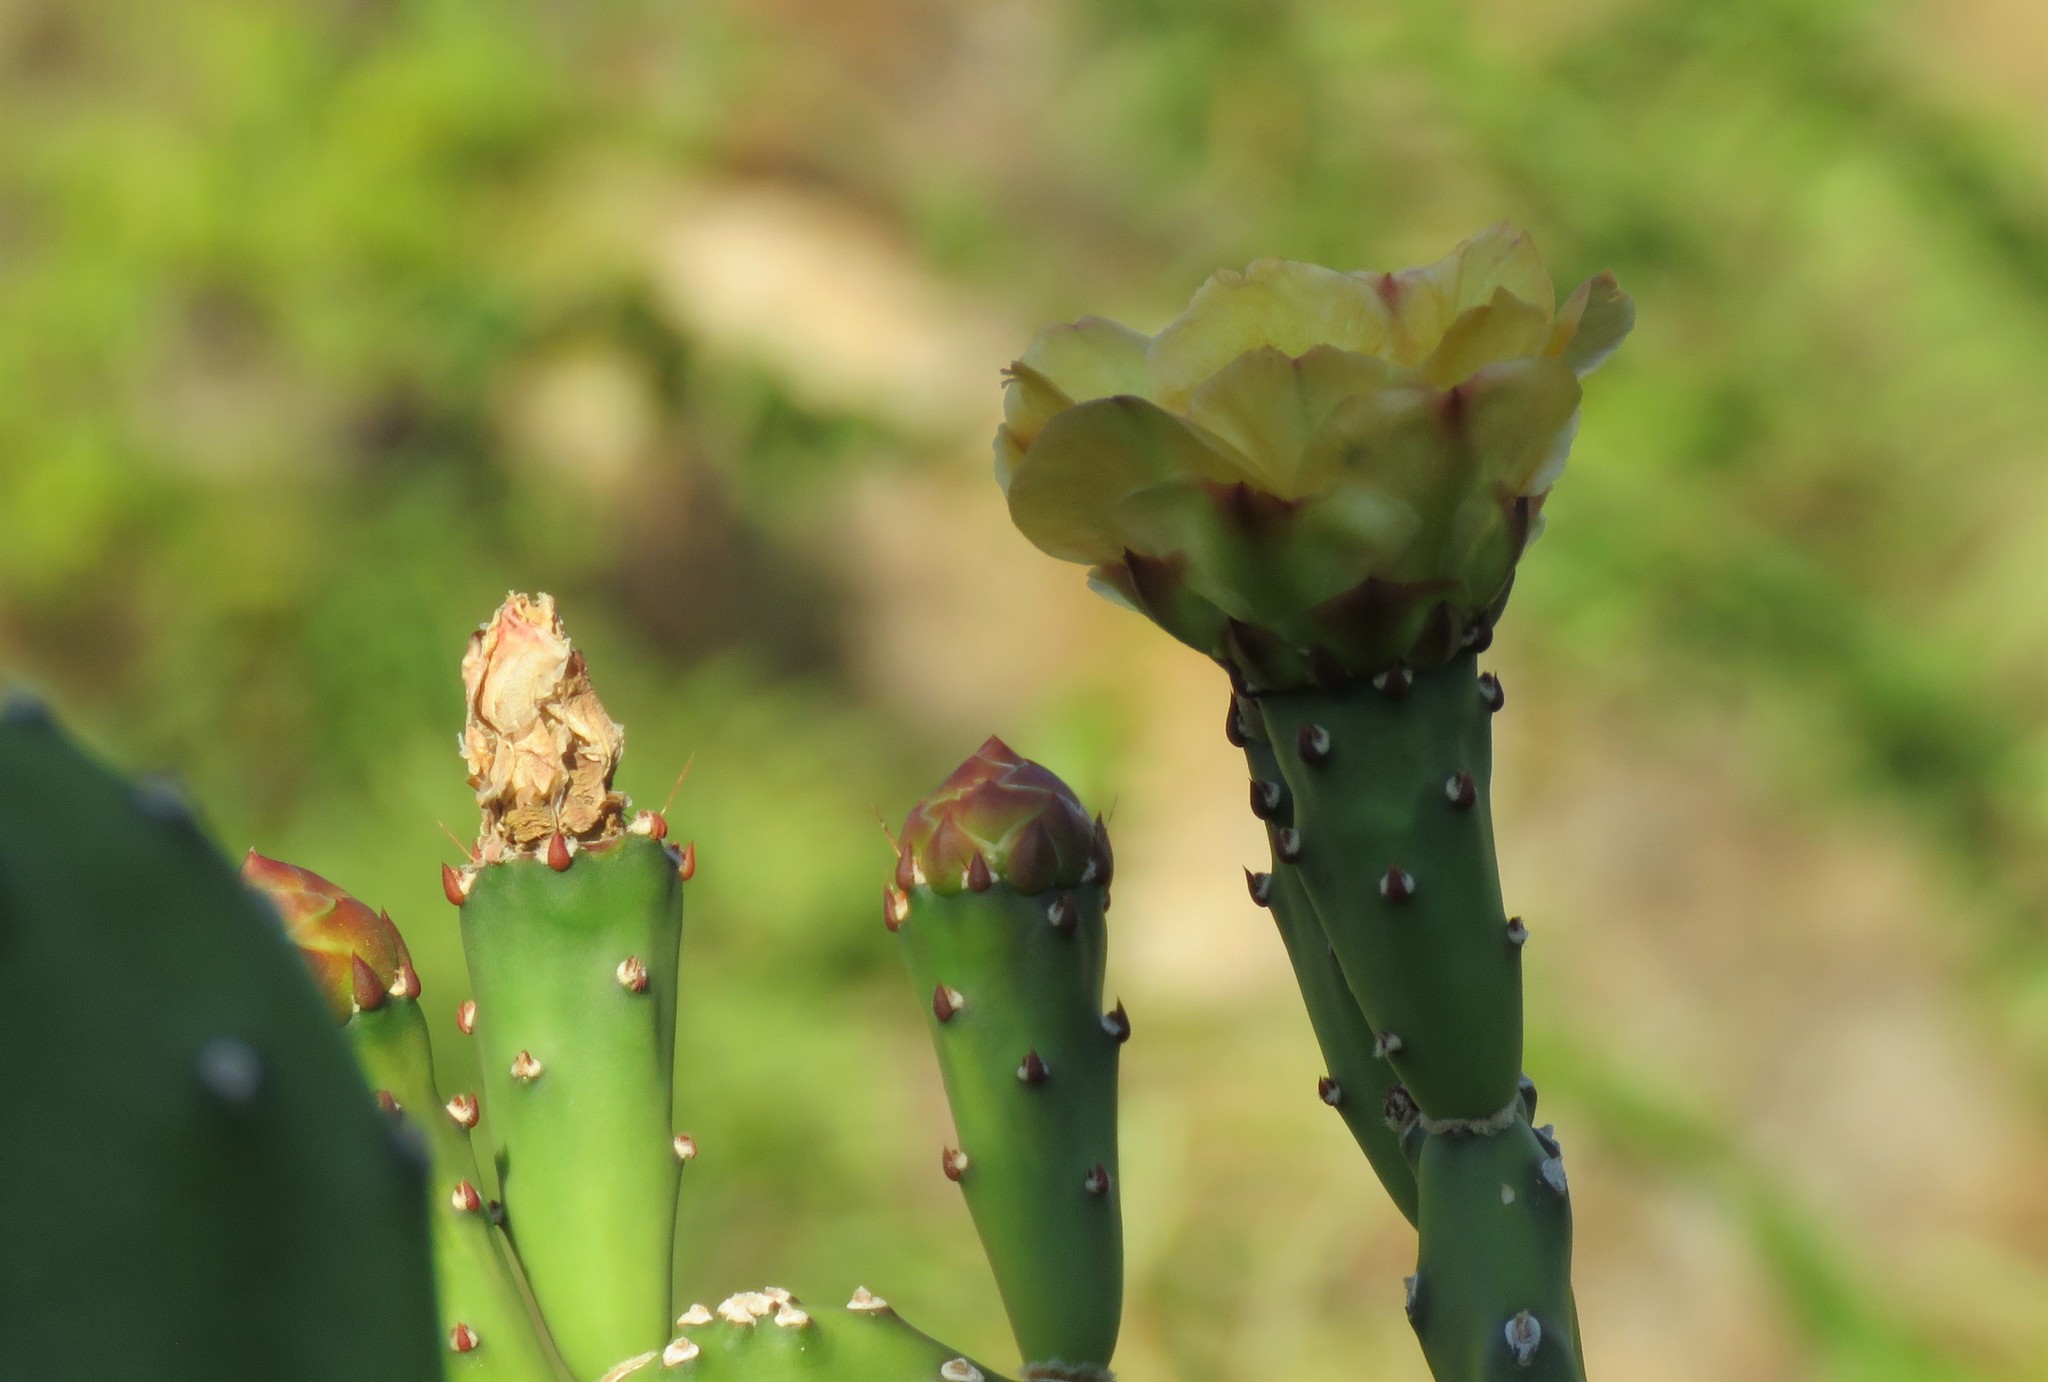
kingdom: Plantae
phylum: Tracheophyta
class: Magnoliopsida
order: Caryophyllales
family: Cactaceae
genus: Opuntia
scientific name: Opuntia elata
